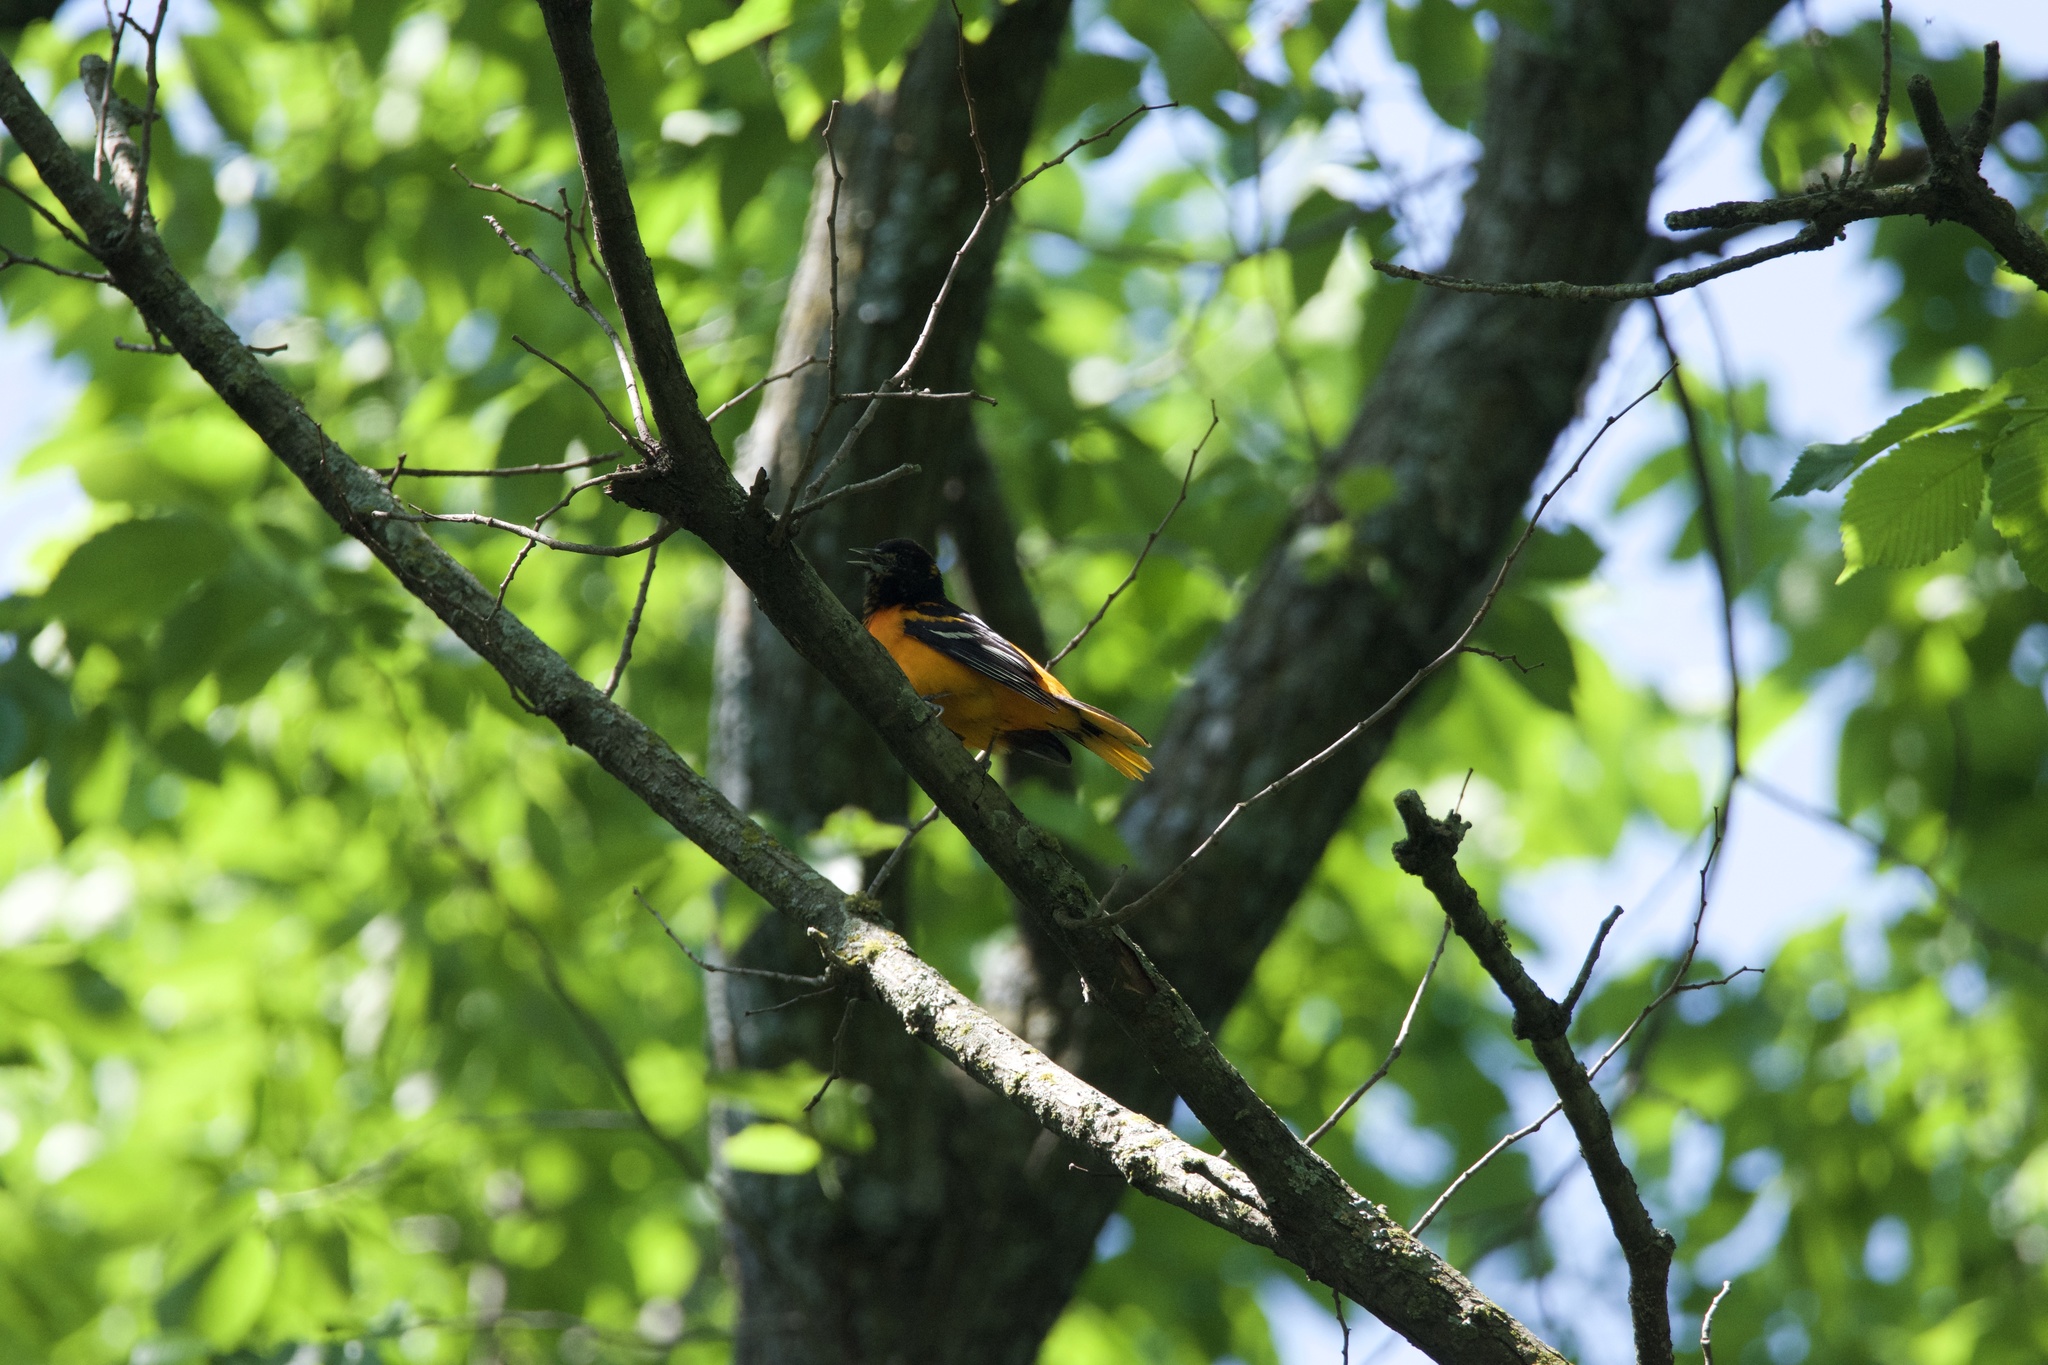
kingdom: Animalia
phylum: Chordata
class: Aves
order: Passeriformes
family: Icteridae
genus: Icterus
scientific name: Icterus galbula
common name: Baltimore oriole
